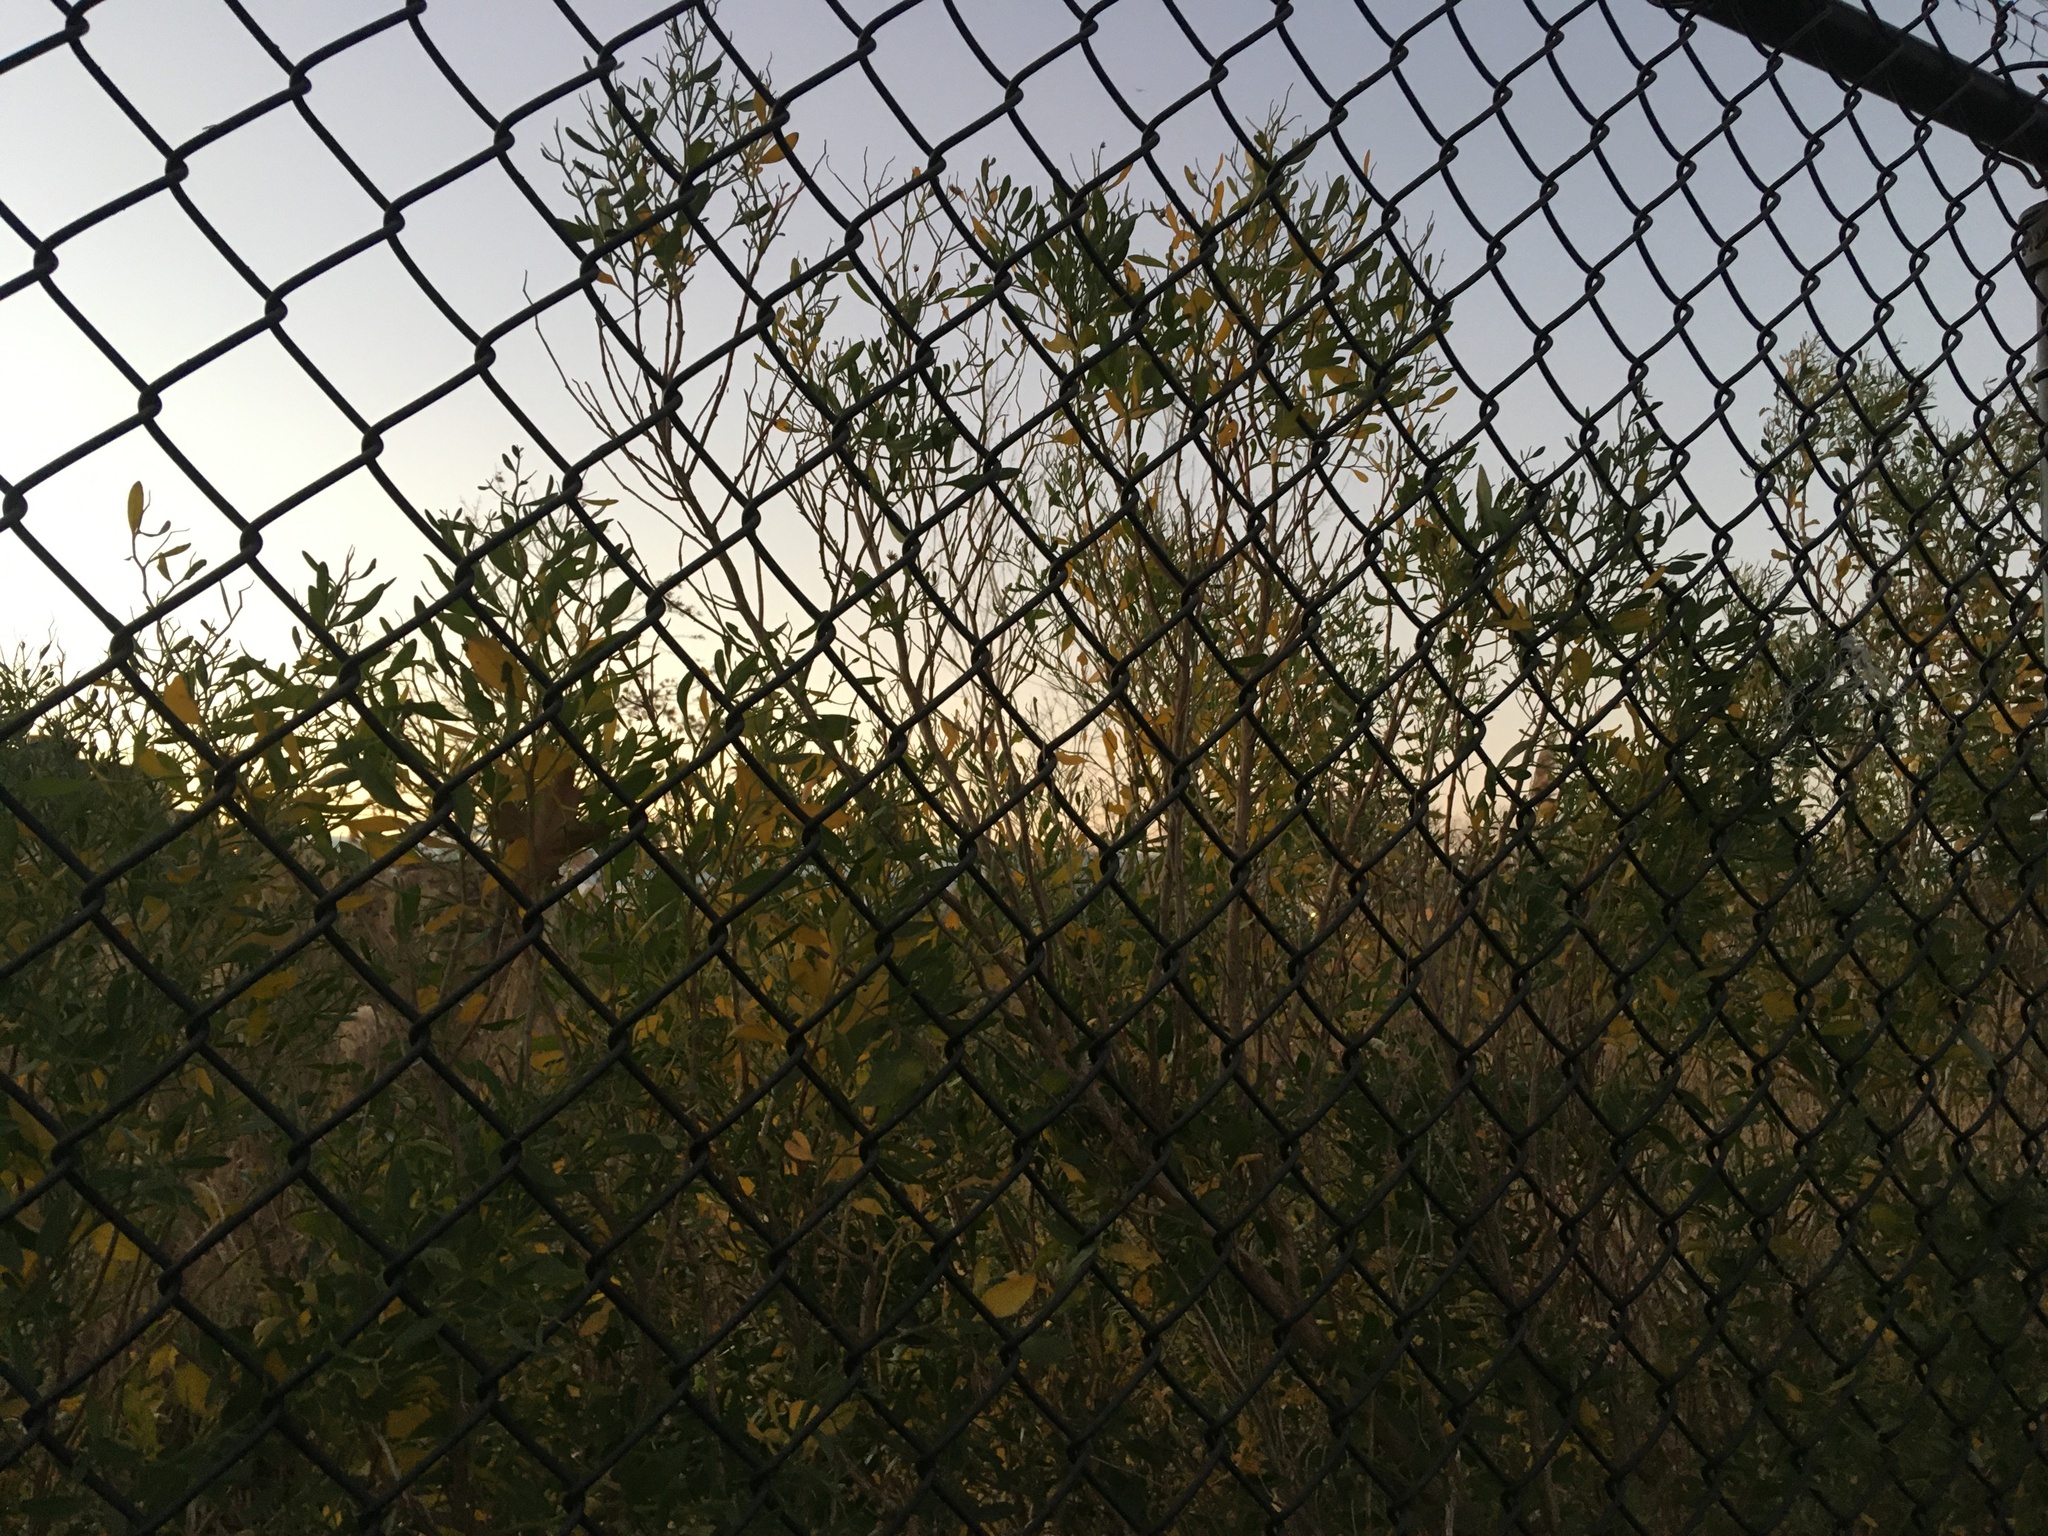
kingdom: Plantae
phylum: Tracheophyta
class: Magnoliopsida
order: Asterales
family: Asteraceae
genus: Baccharis
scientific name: Baccharis halimifolia
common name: Eastern baccharis
